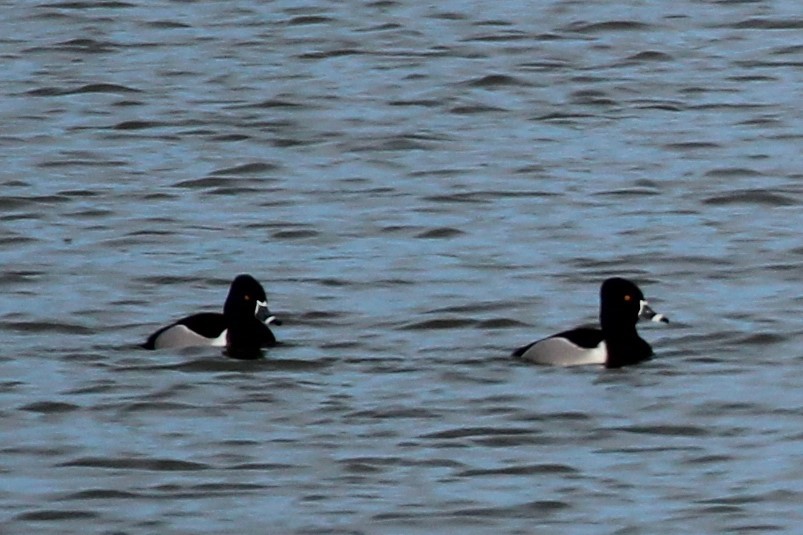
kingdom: Animalia
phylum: Chordata
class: Aves
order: Anseriformes
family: Anatidae
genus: Aythya
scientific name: Aythya collaris
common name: Ring-necked duck
